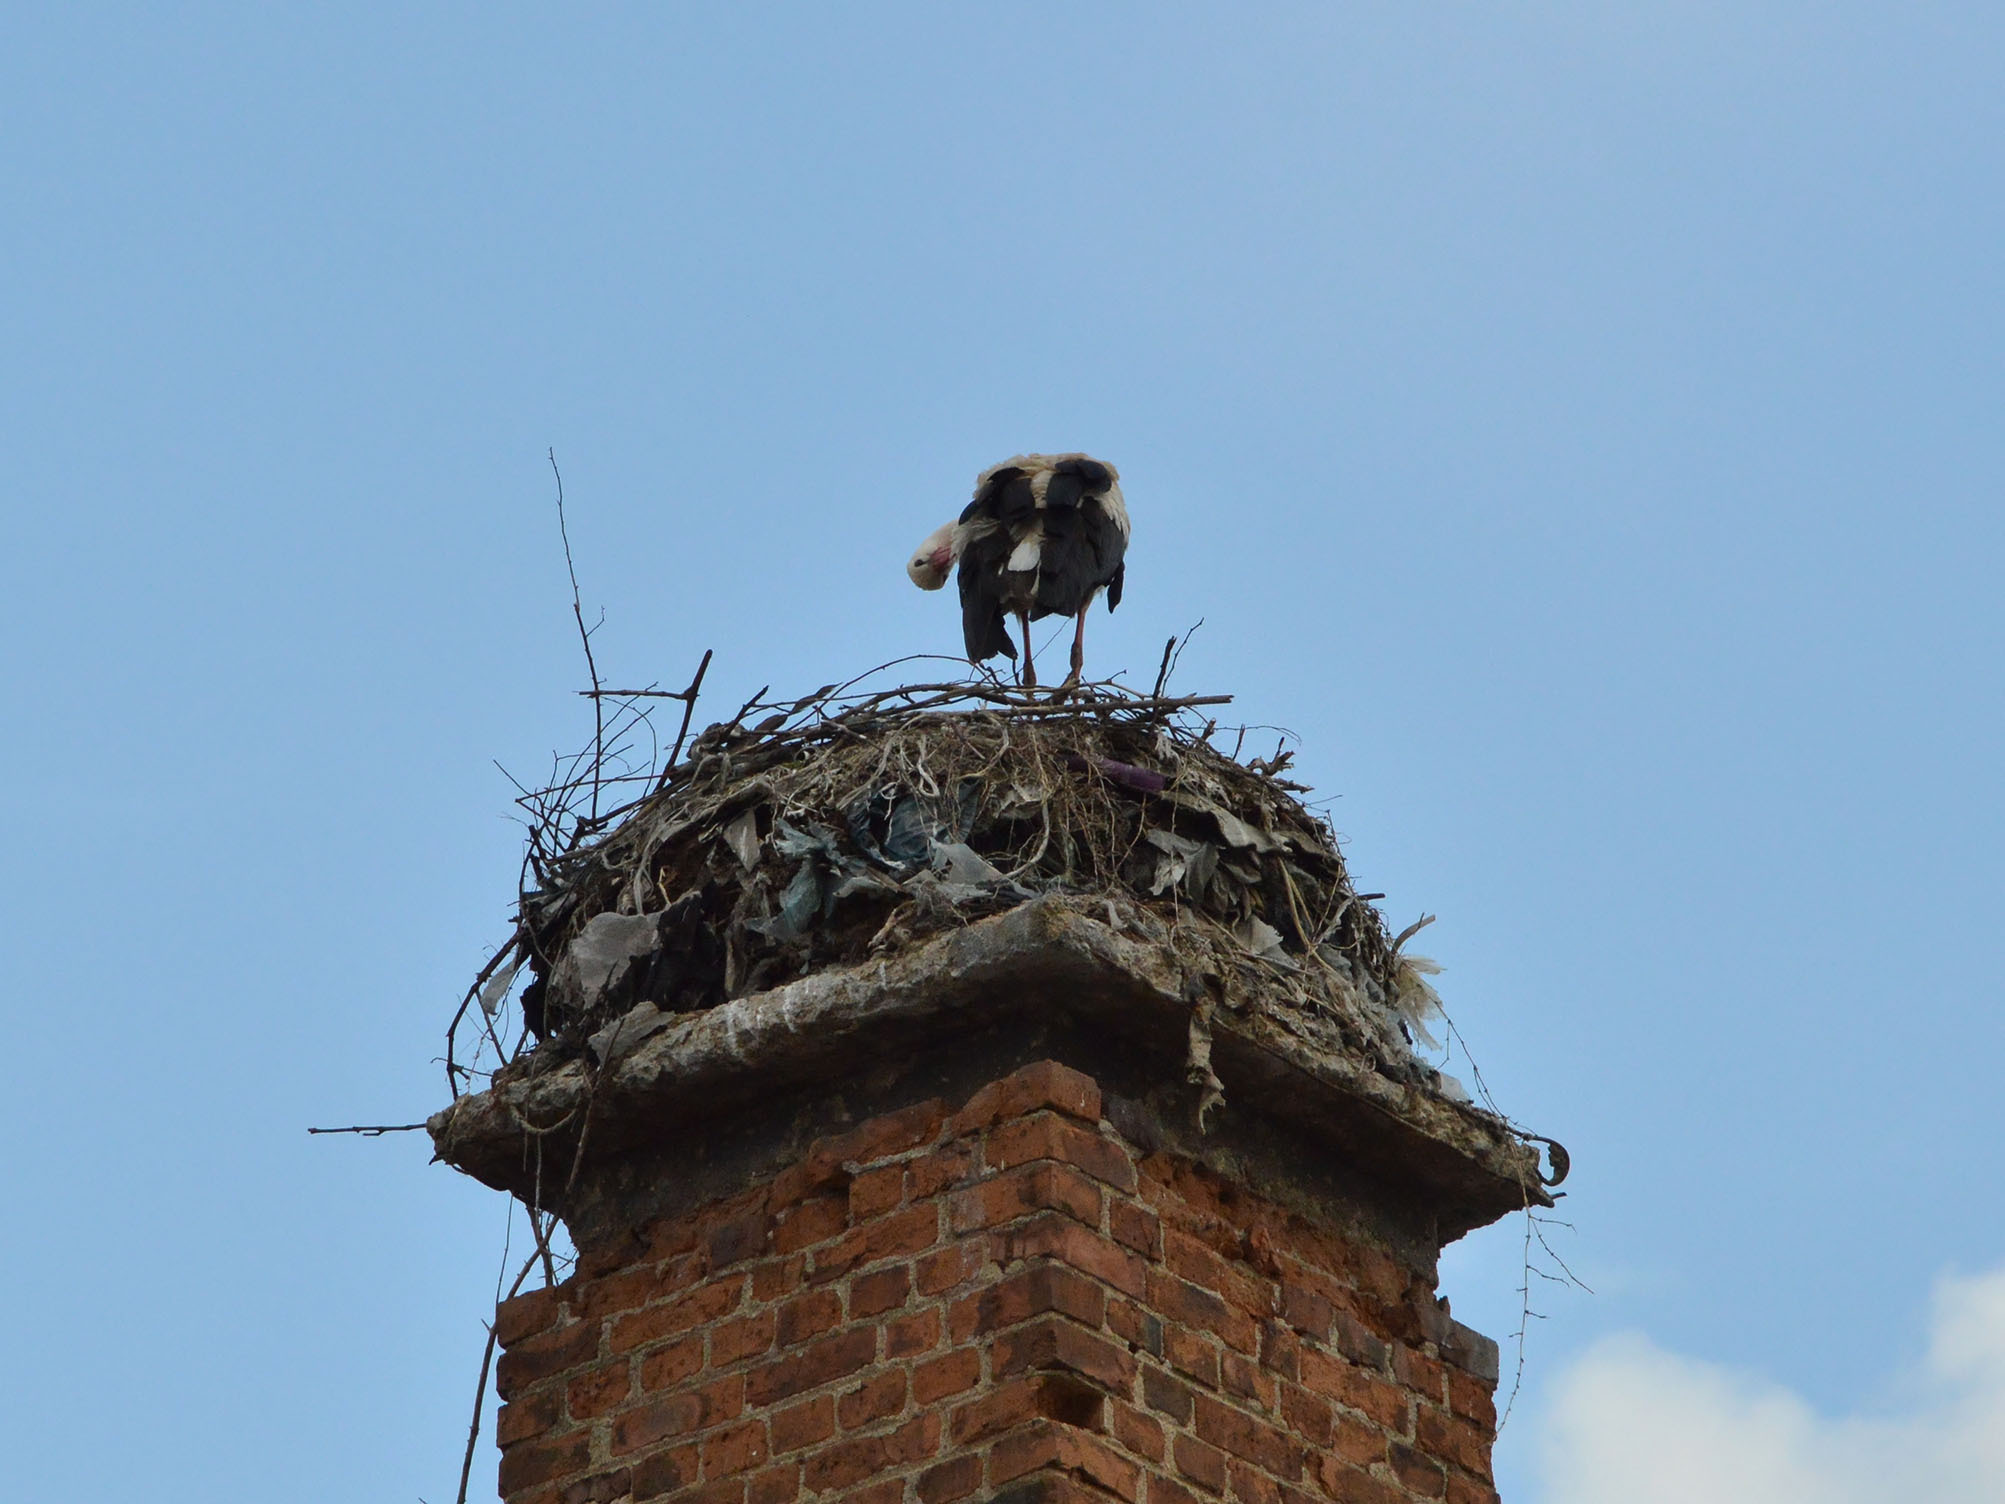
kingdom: Animalia
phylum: Chordata
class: Aves
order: Ciconiiformes
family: Ciconiidae
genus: Ciconia
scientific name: Ciconia ciconia
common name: White stork
